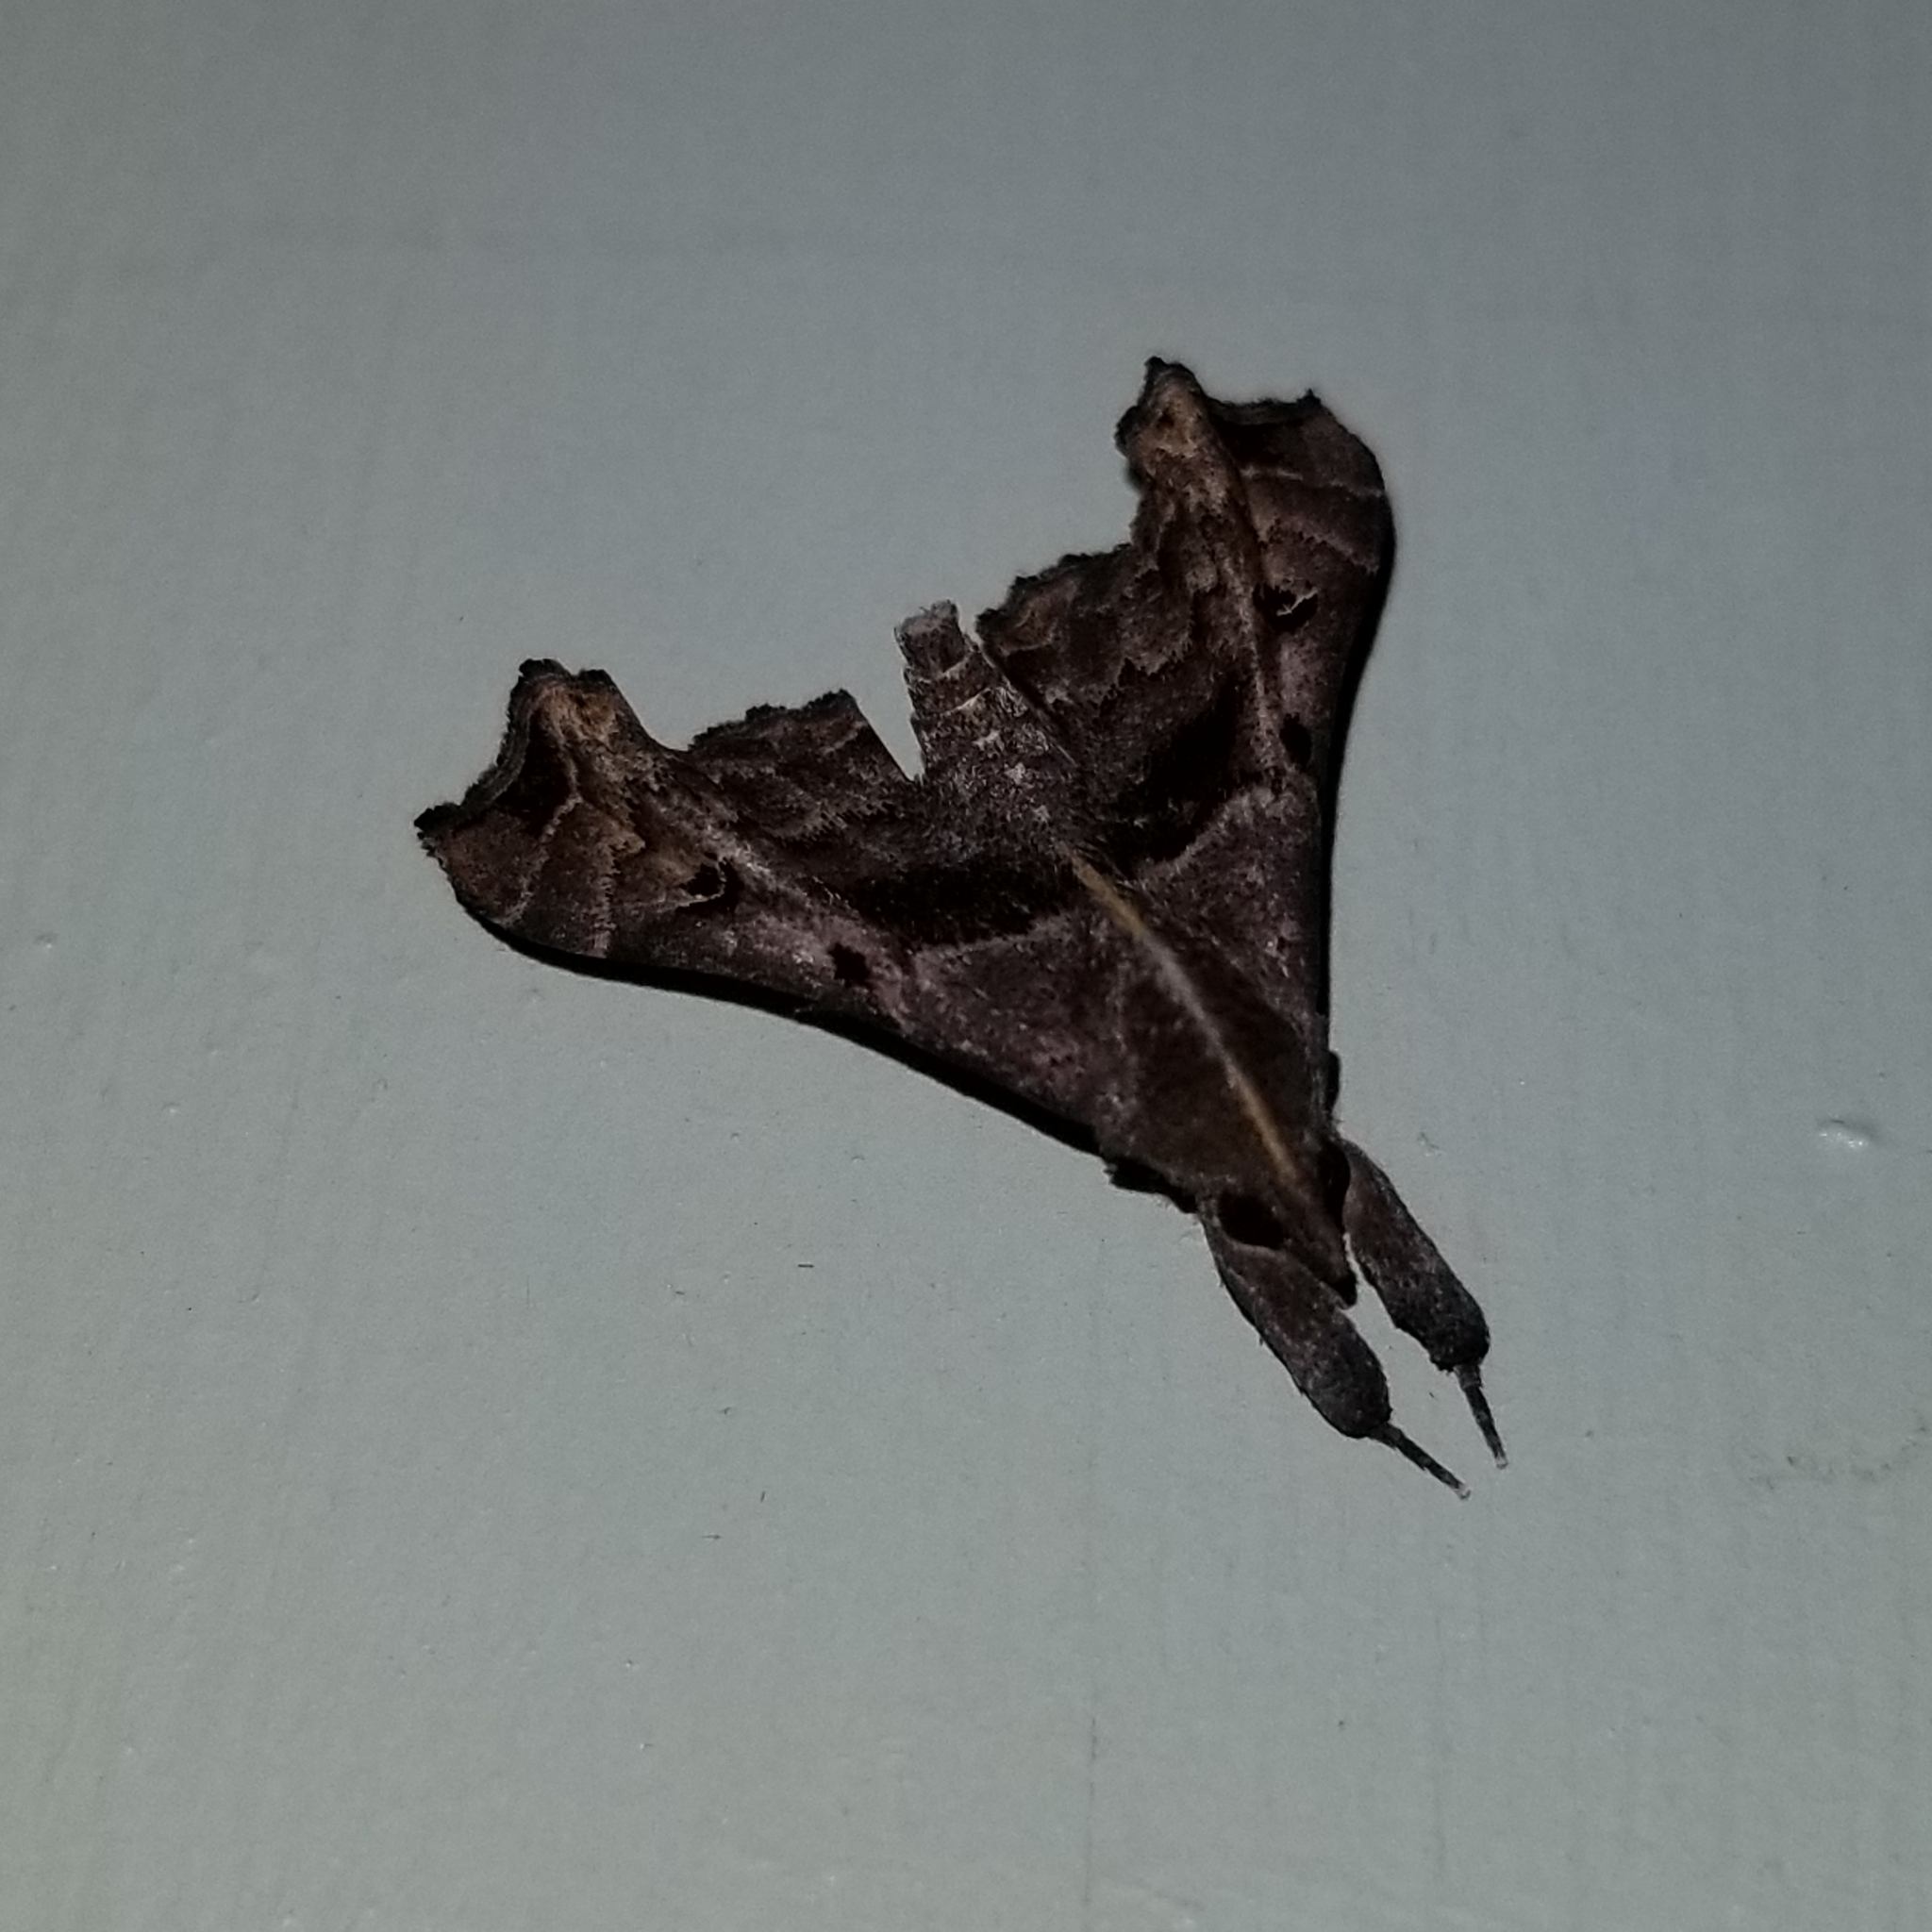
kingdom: Animalia
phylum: Arthropoda
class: Insecta
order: Lepidoptera
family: Erebidae
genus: Palthis
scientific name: Palthis asopialis
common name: Faint-spotted palthis moth
